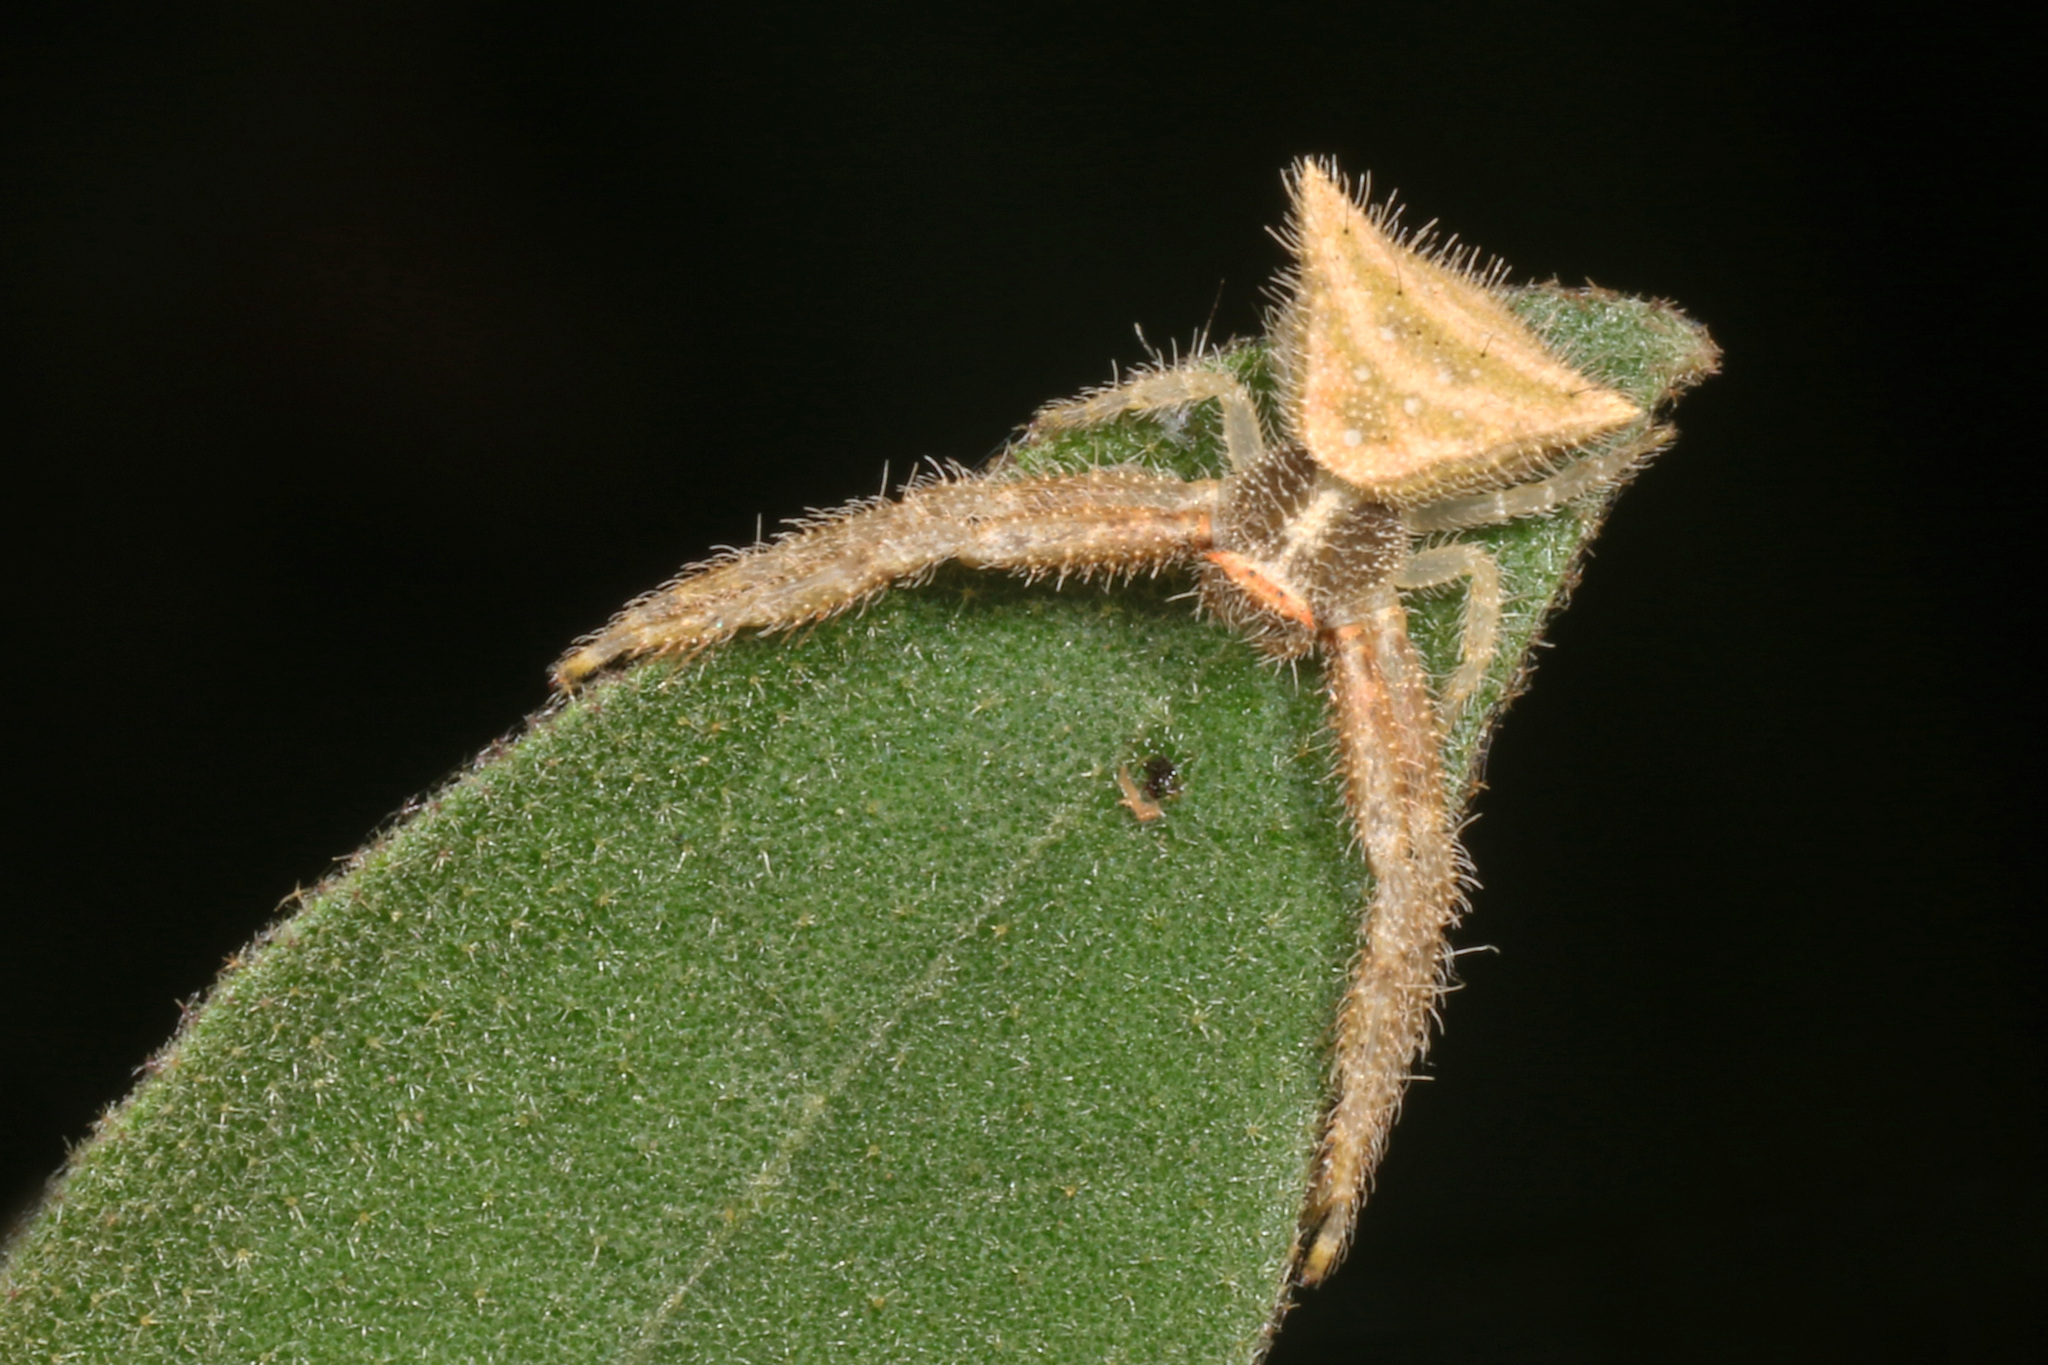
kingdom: Animalia
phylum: Arthropoda
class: Arachnida
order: Araneae
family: Thomisidae
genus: Thomisus
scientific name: Thomisus spiculosus
